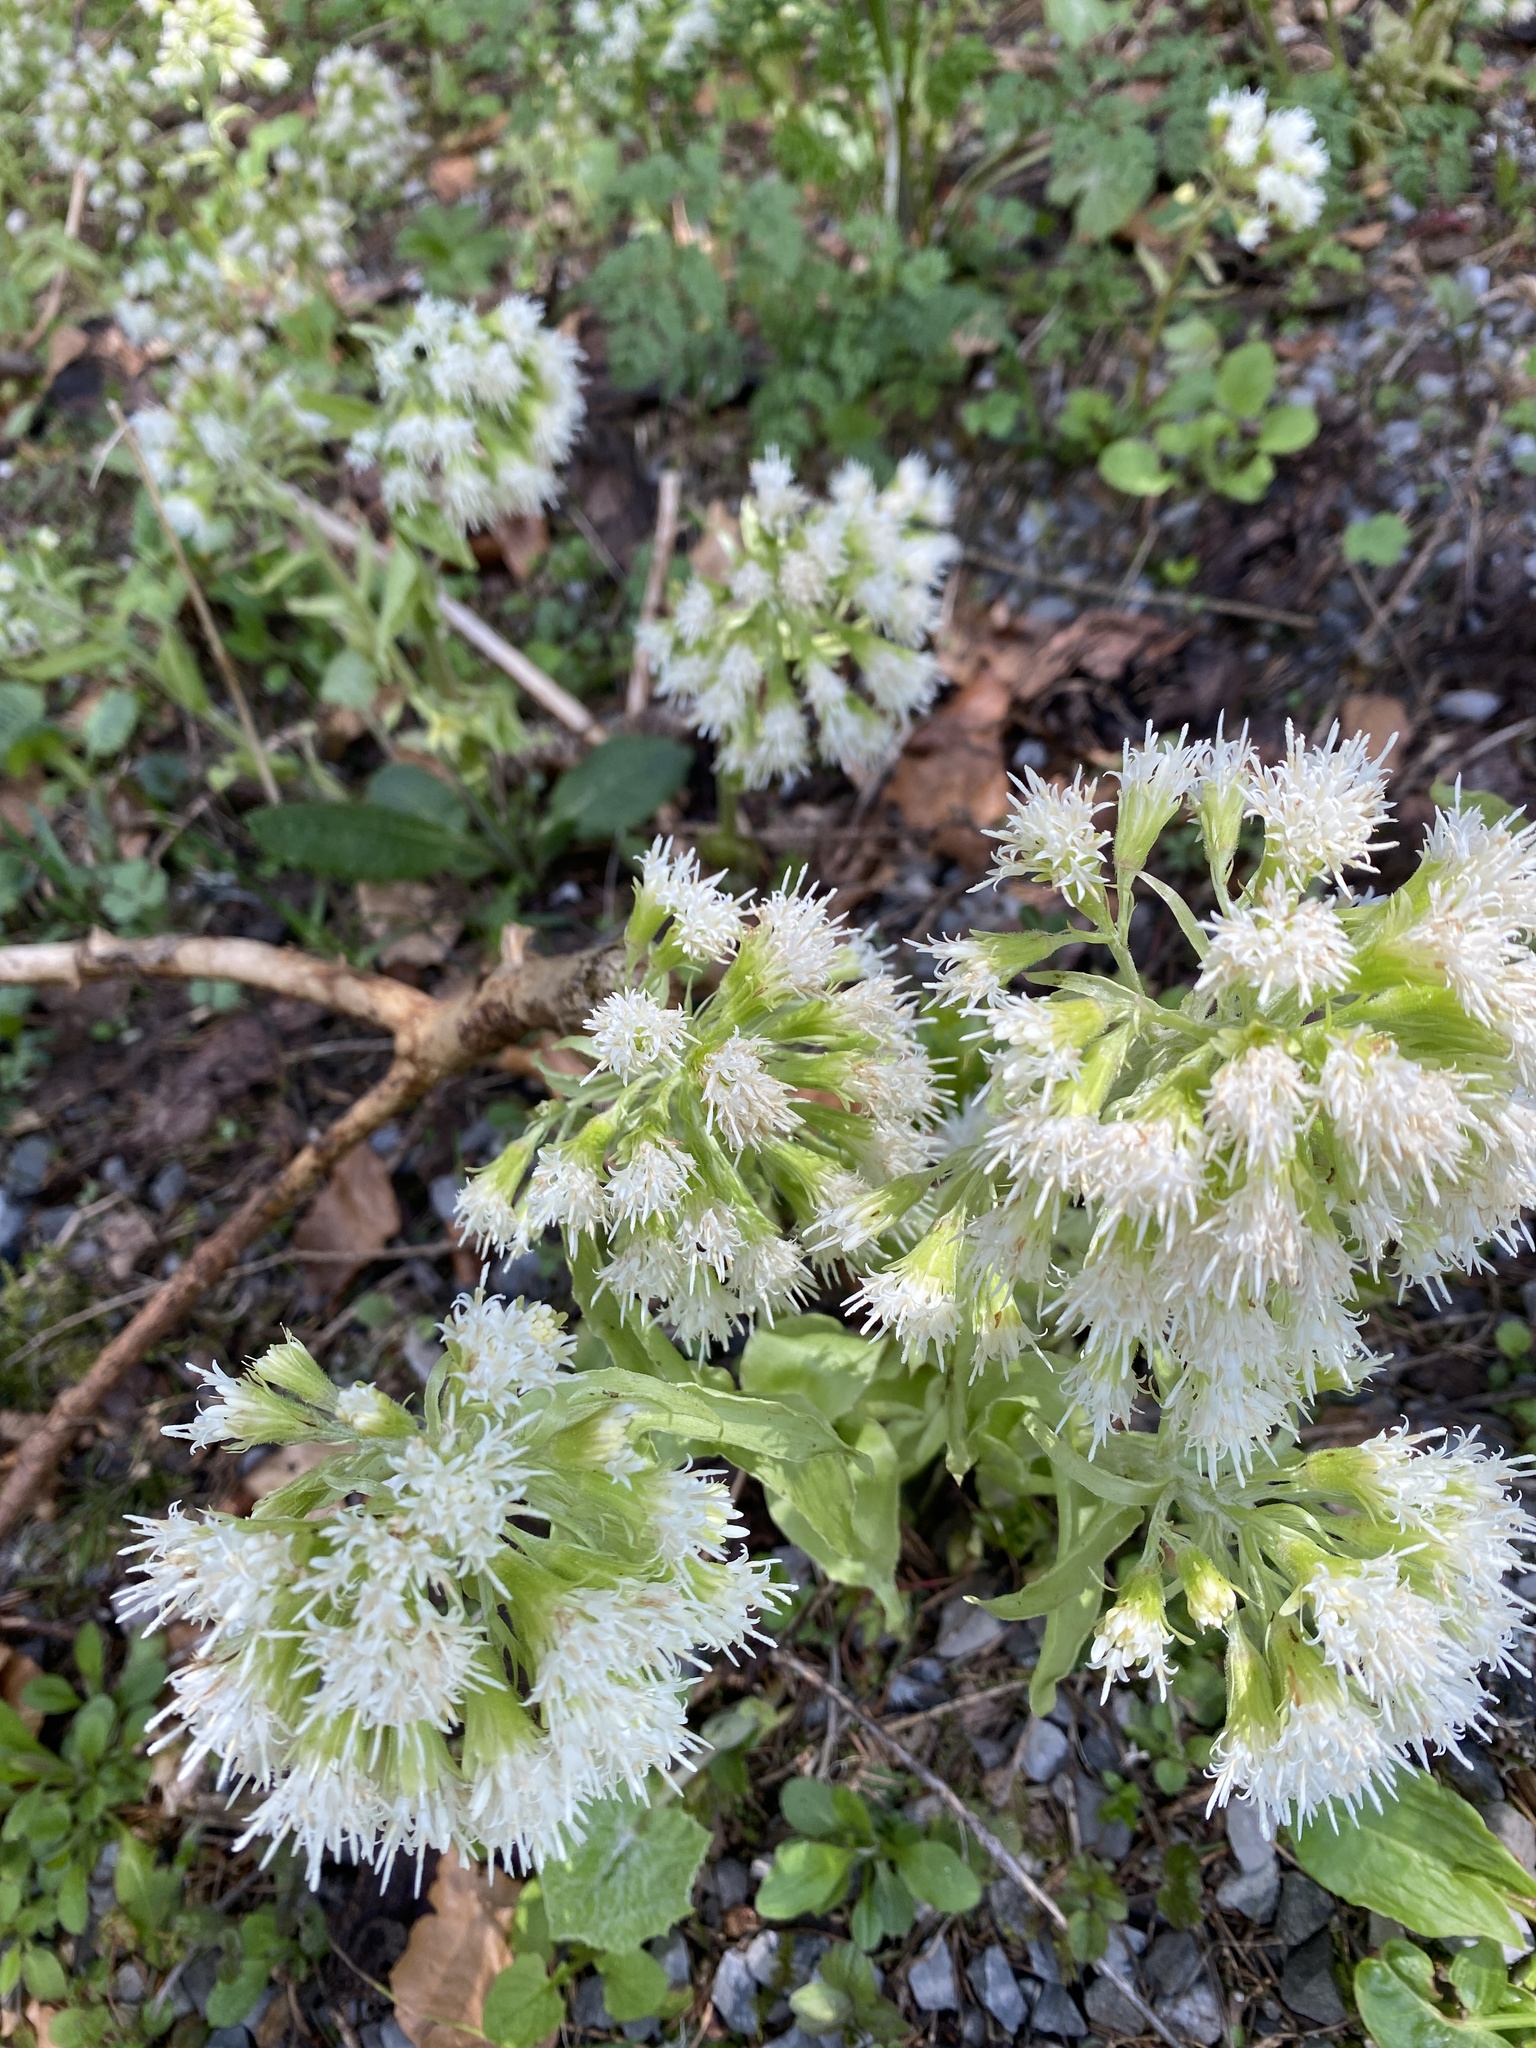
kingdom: Plantae
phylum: Tracheophyta
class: Magnoliopsida
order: Asterales
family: Asteraceae
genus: Petasites
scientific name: Petasites albus
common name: White butterbur
